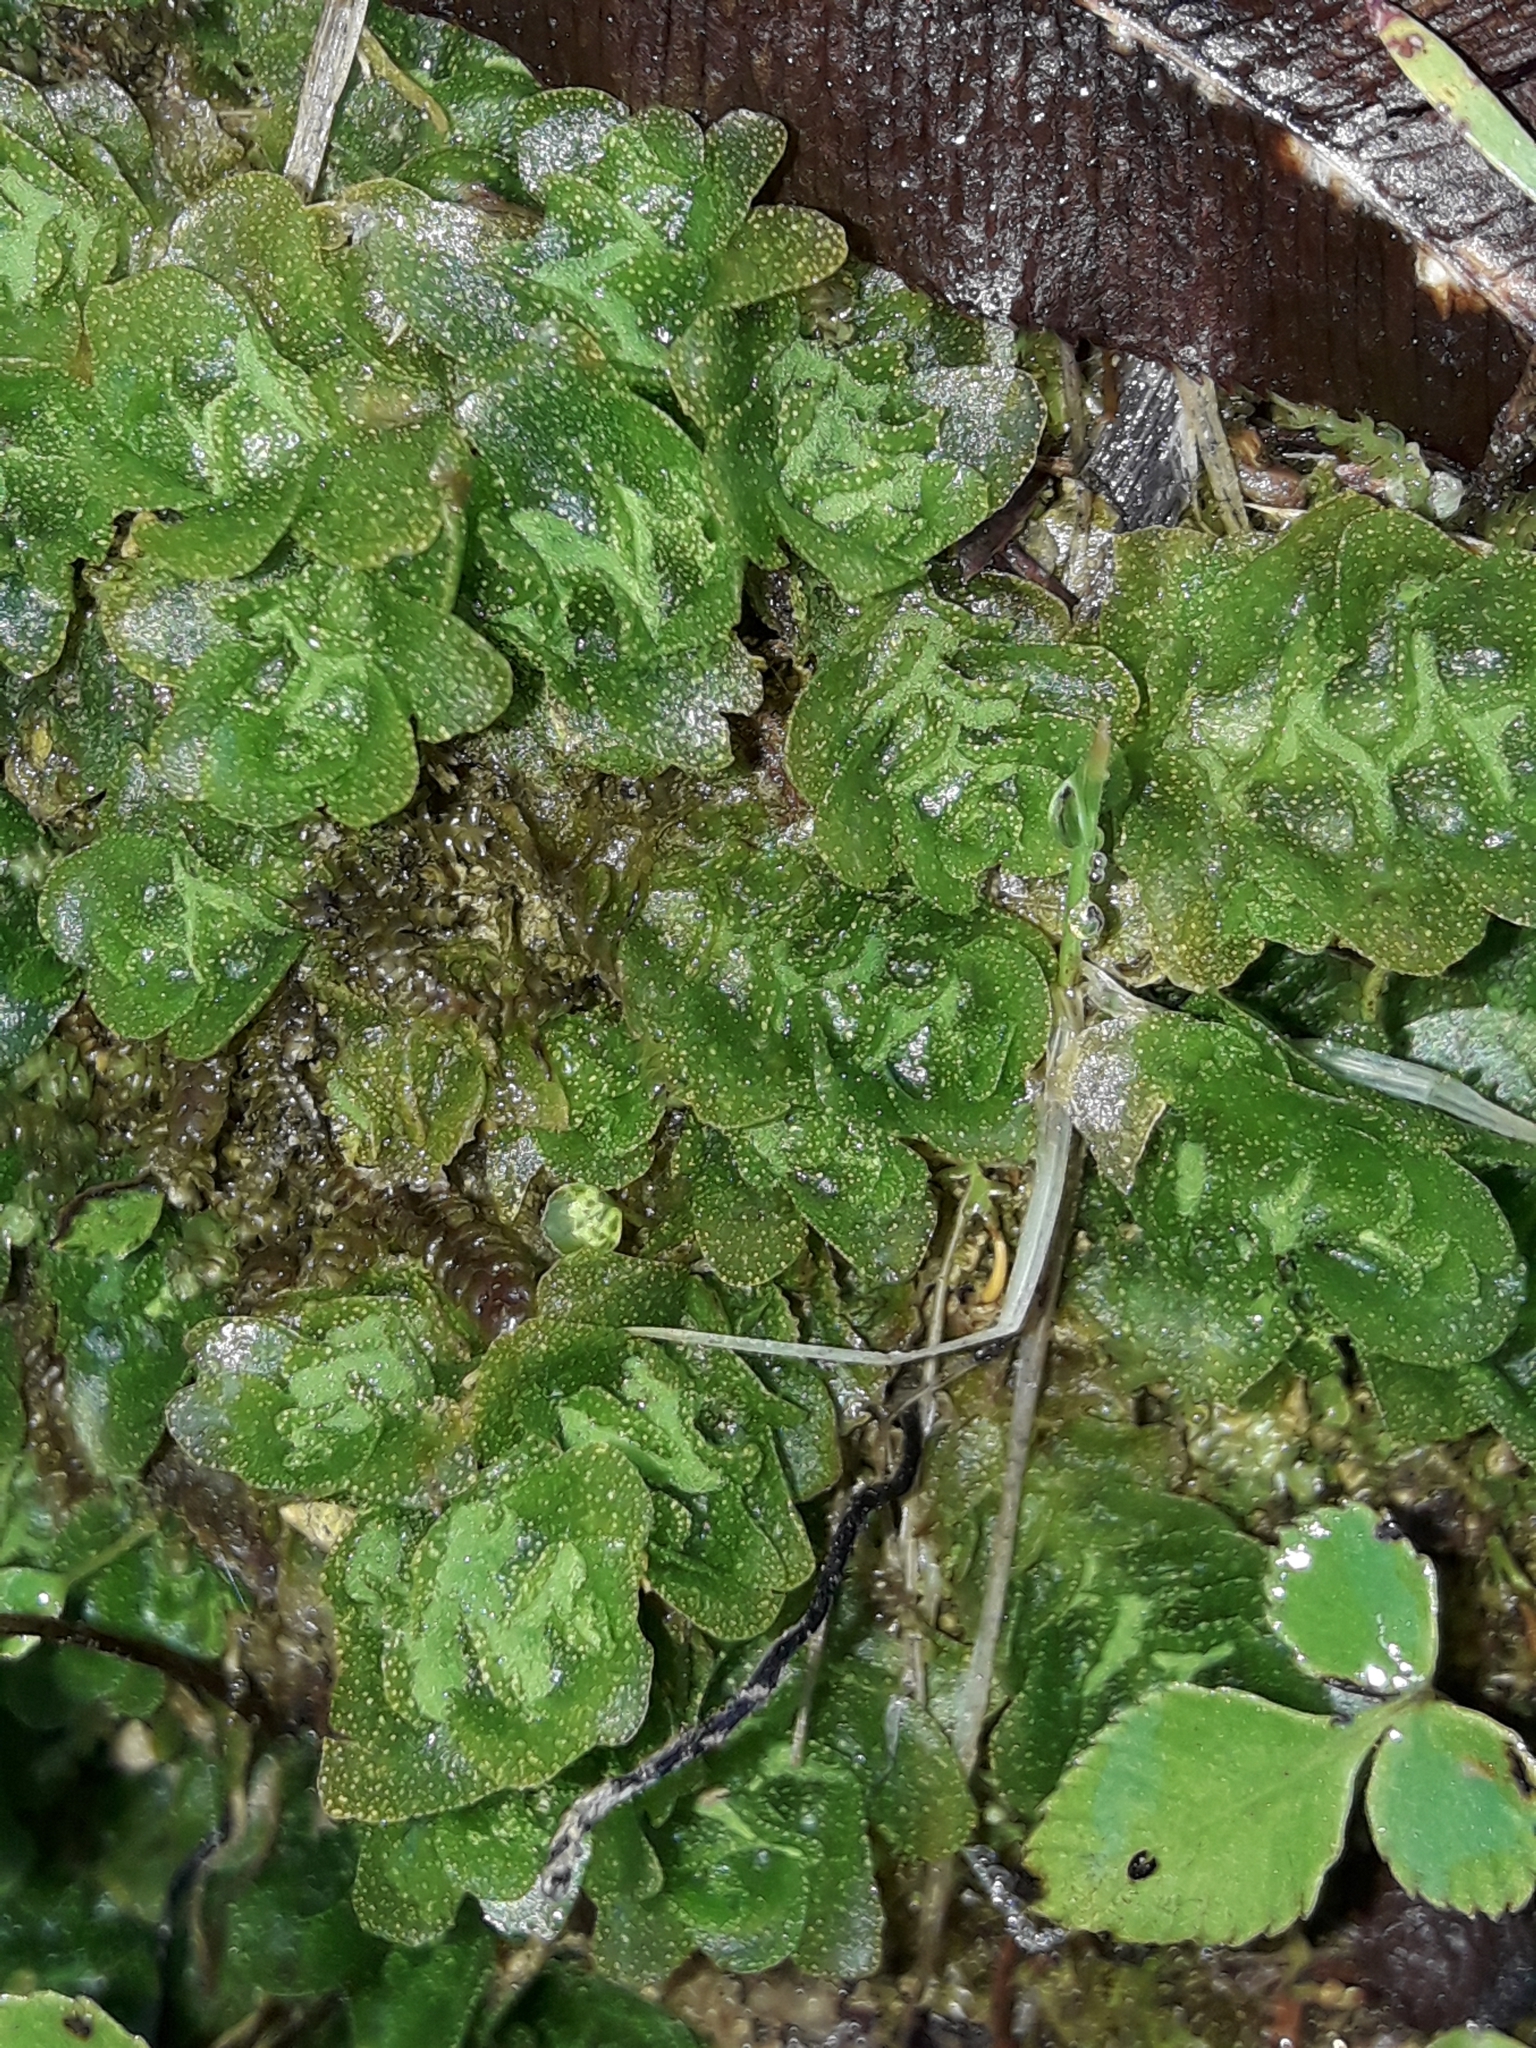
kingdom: Plantae
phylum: Marchantiophyta
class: Haplomitriopsida
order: Treubiales
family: Treubiaceae
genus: Treubia
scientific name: Treubia lacunosa
